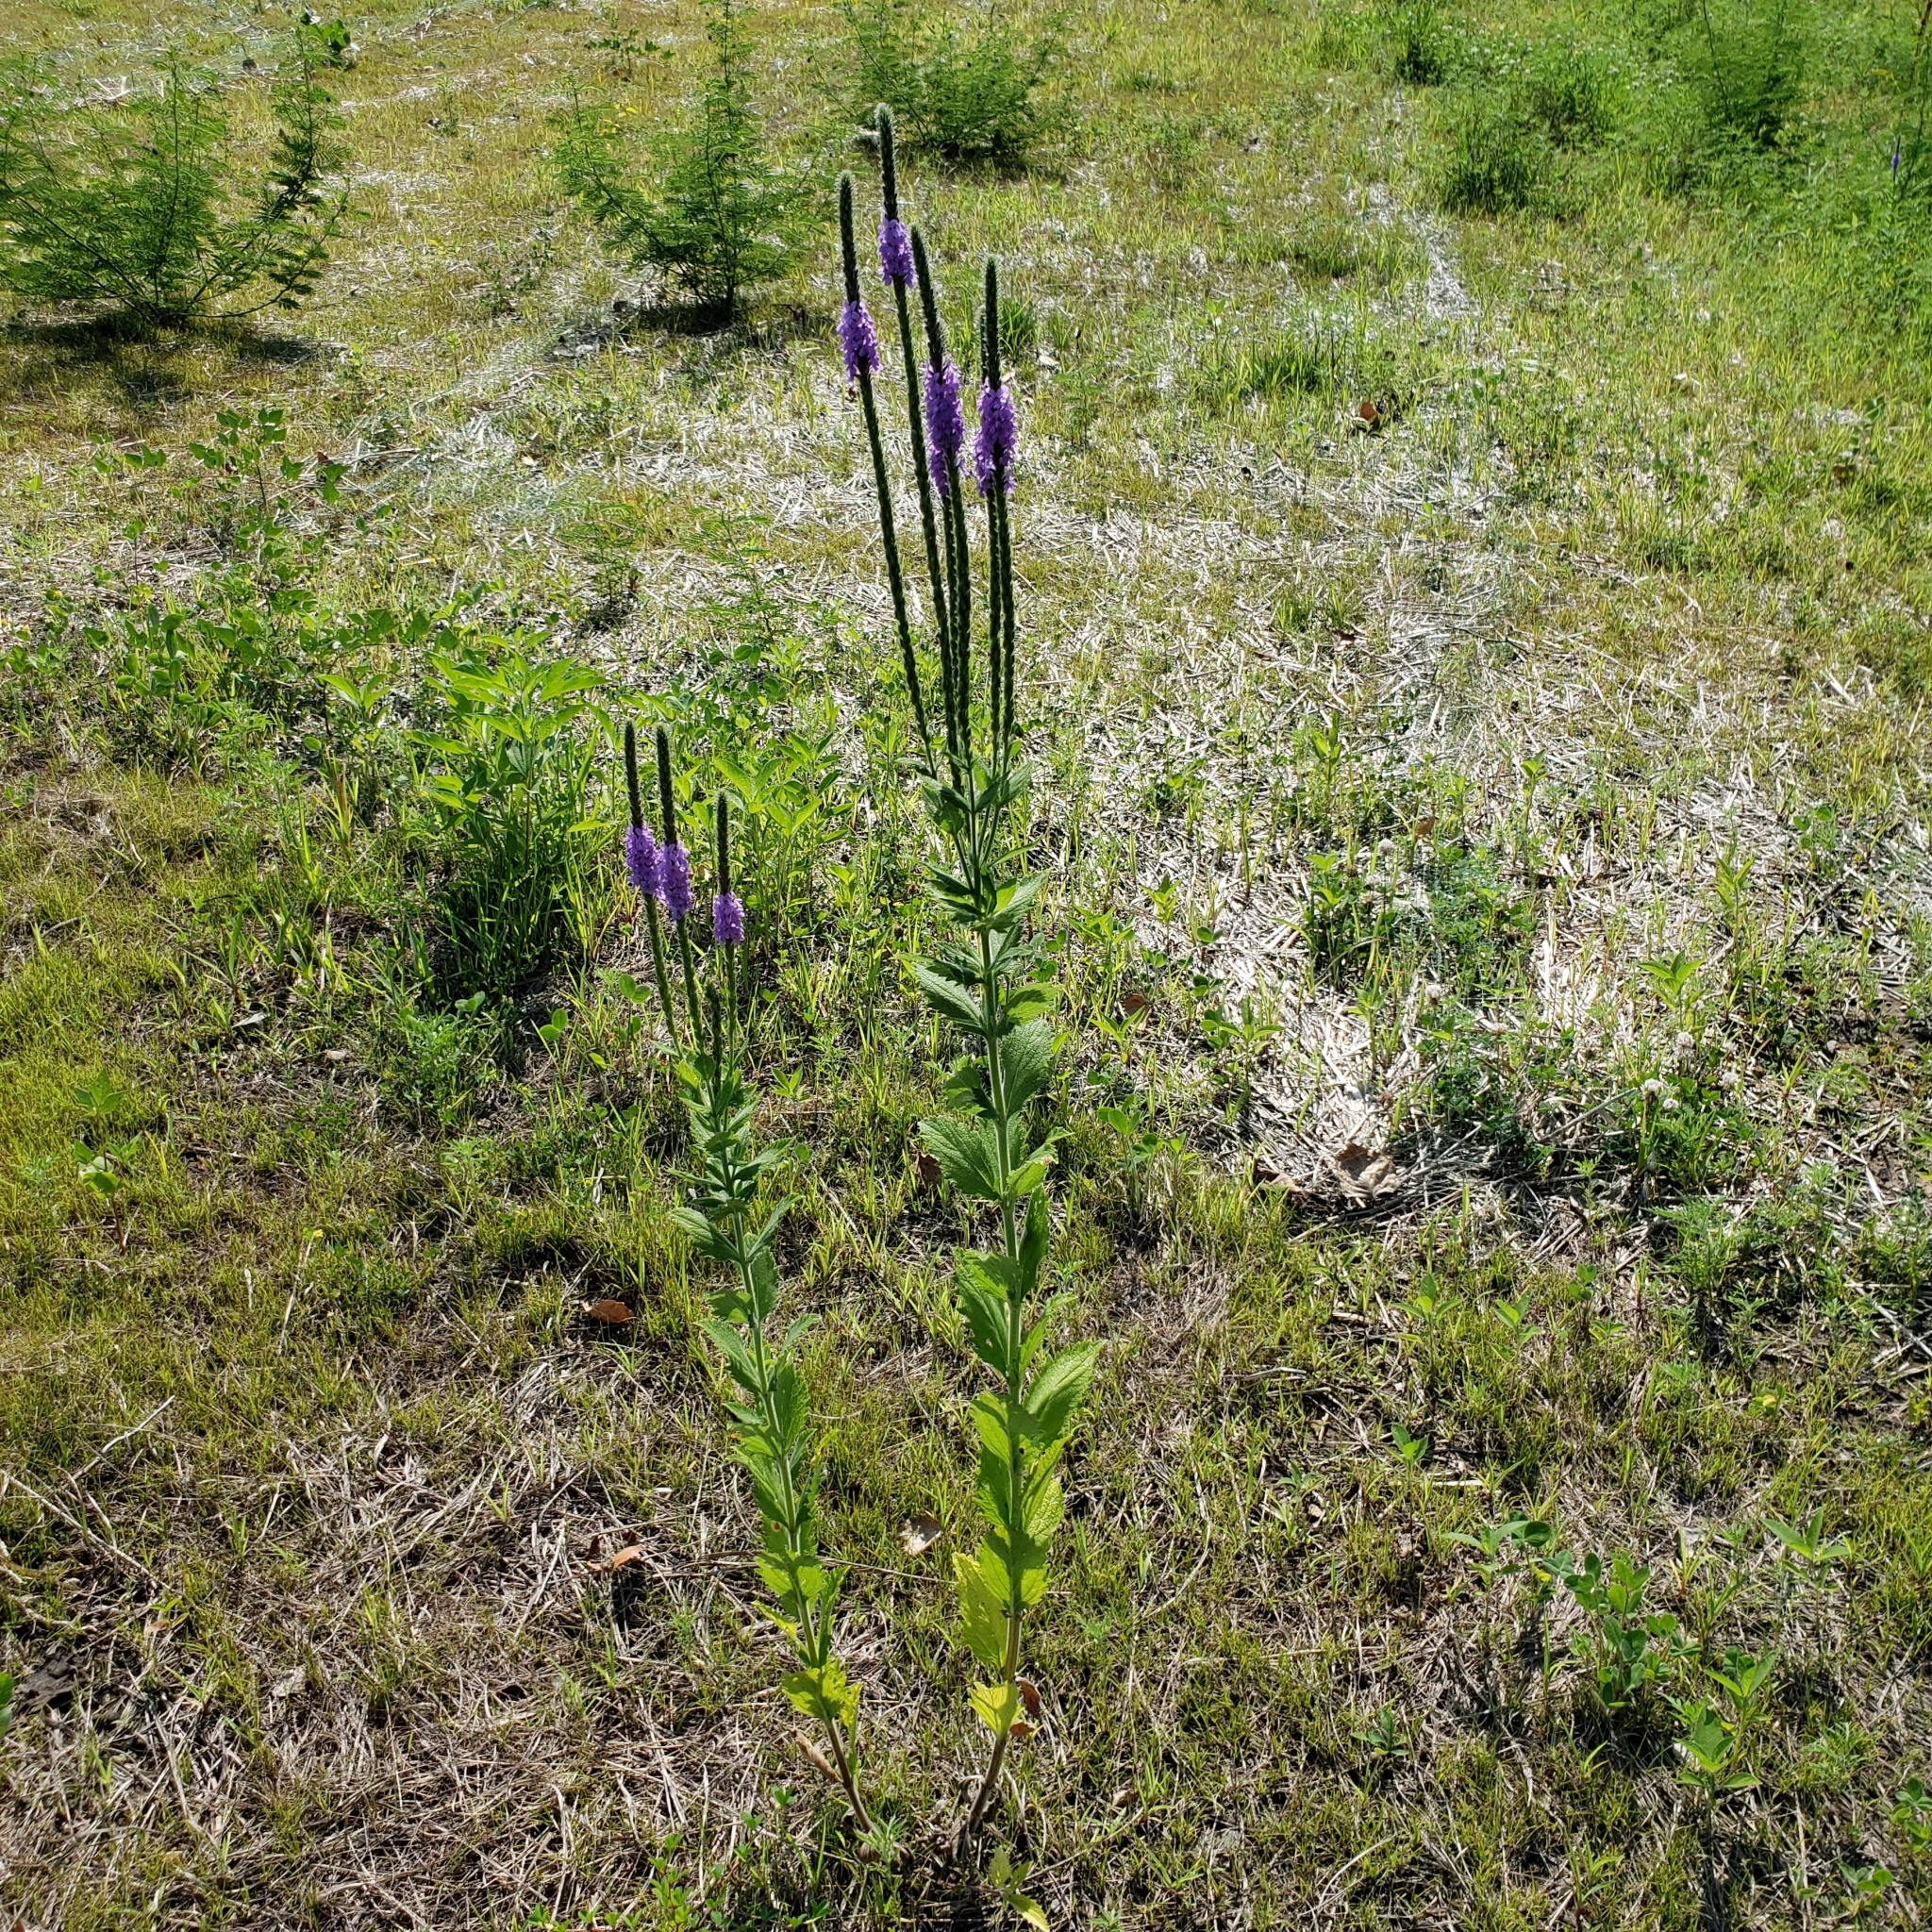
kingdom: Plantae
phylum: Tracheophyta
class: Magnoliopsida
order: Lamiales
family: Verbenaceae
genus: Verbena
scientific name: Verbena stricta
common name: Hoary vervain
